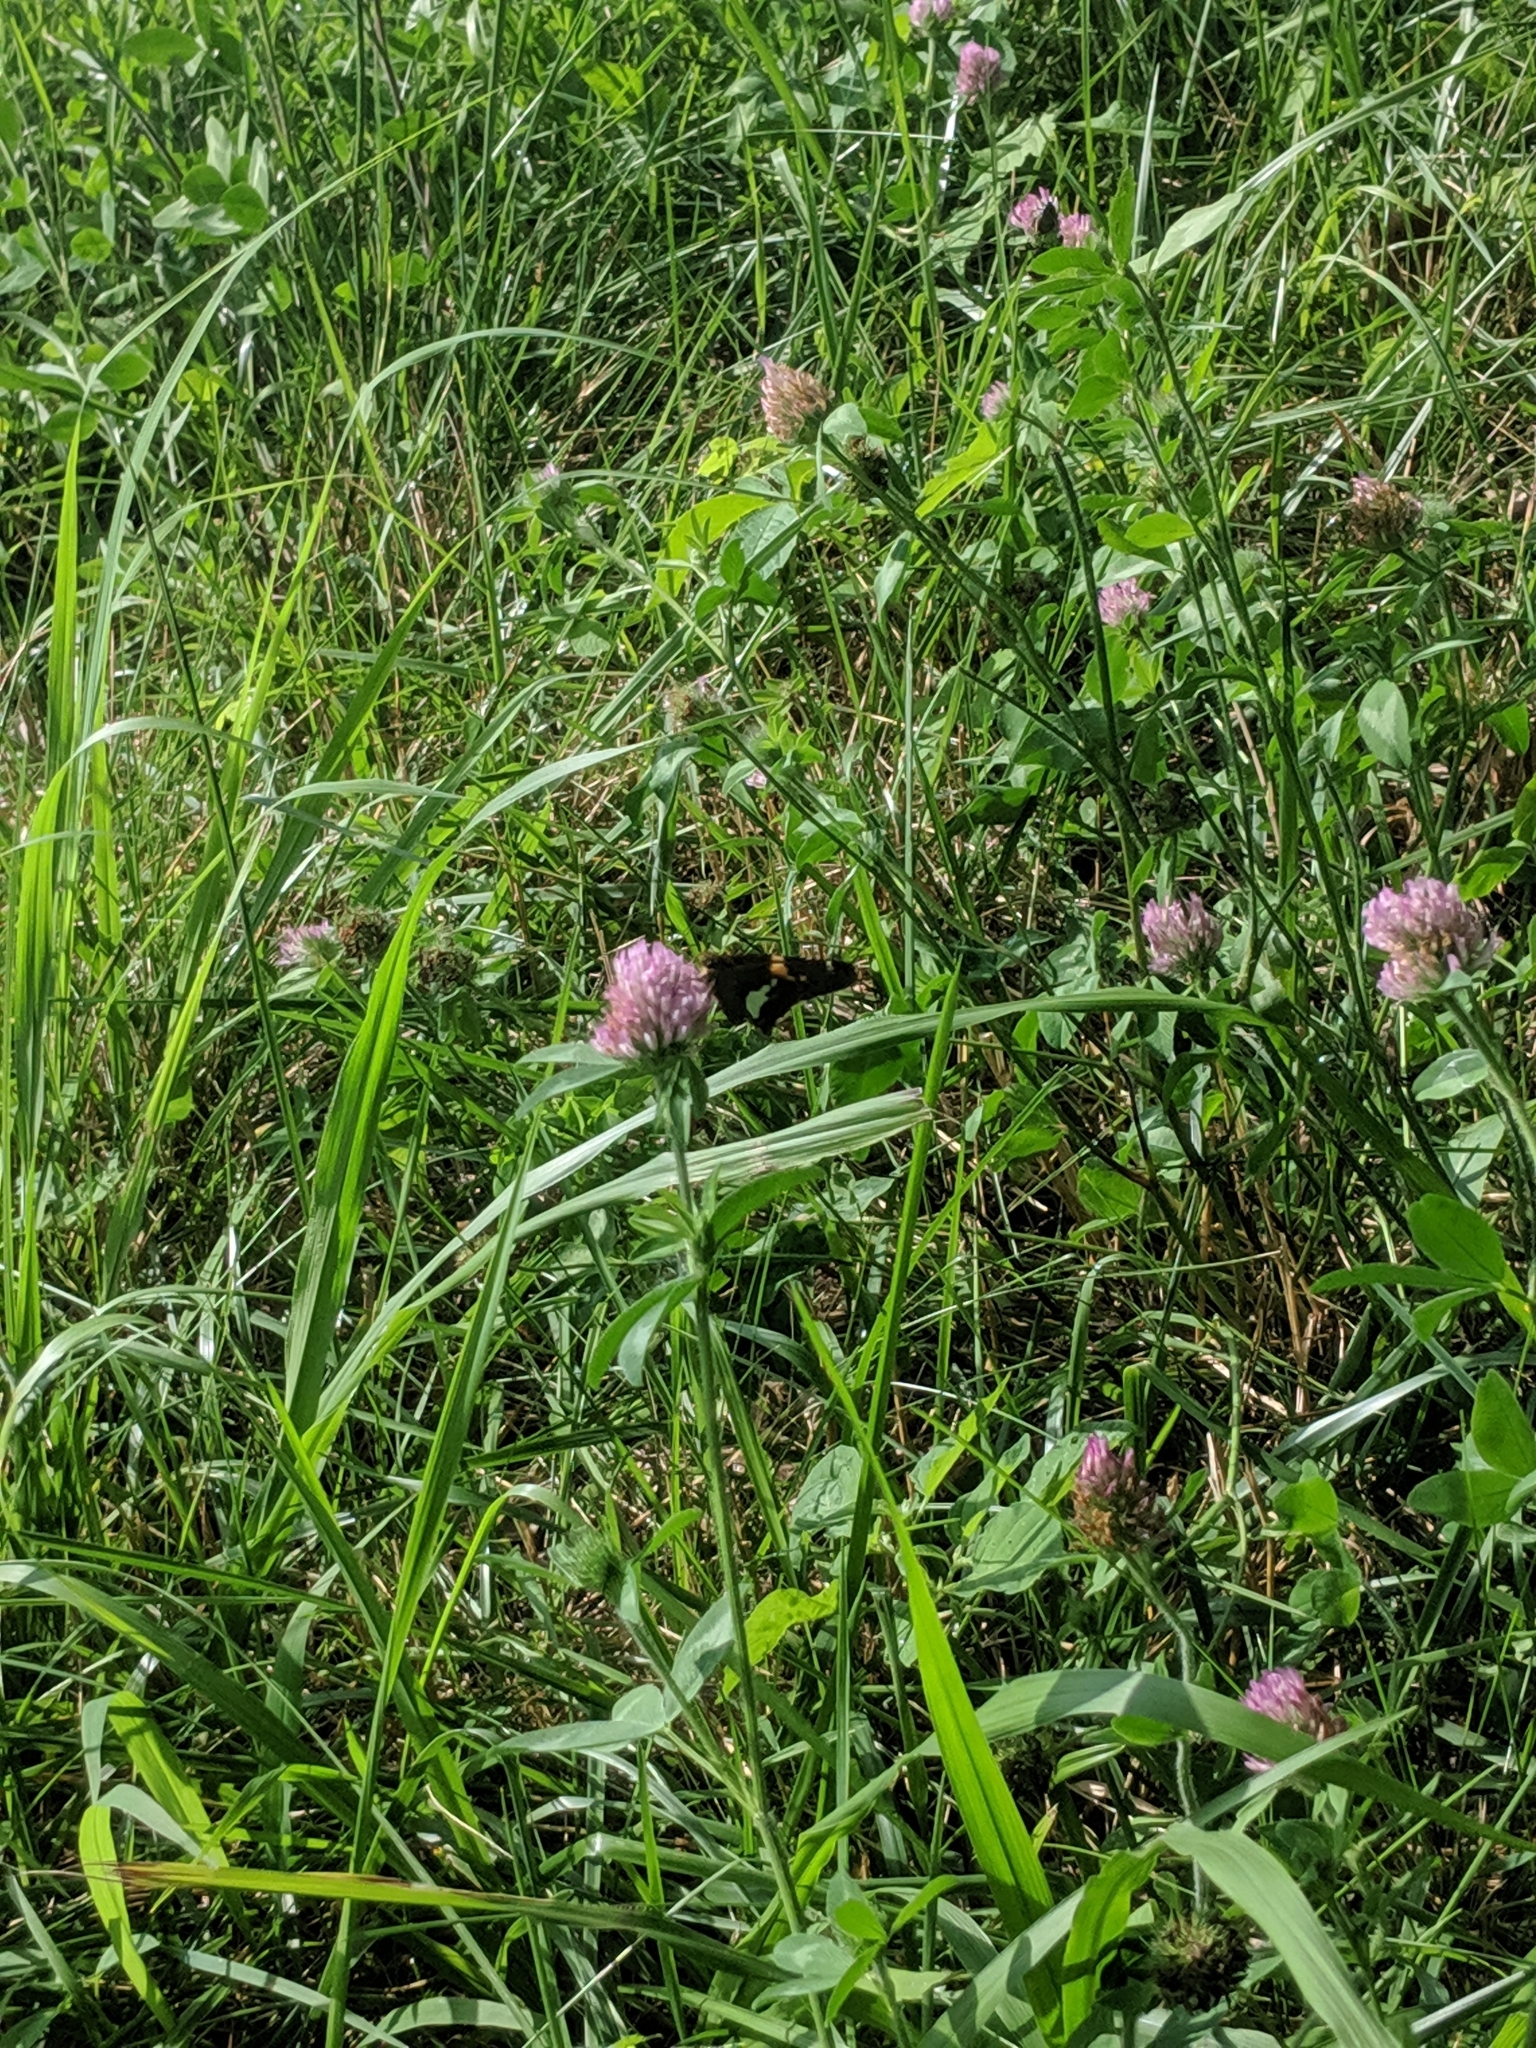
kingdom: Animalia
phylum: Arthropoda
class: Insecta
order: Lepidoptera
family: Hesperiidae
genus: Epargyreus
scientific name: Epargyreus clarus
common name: Silver-spotted skipper
